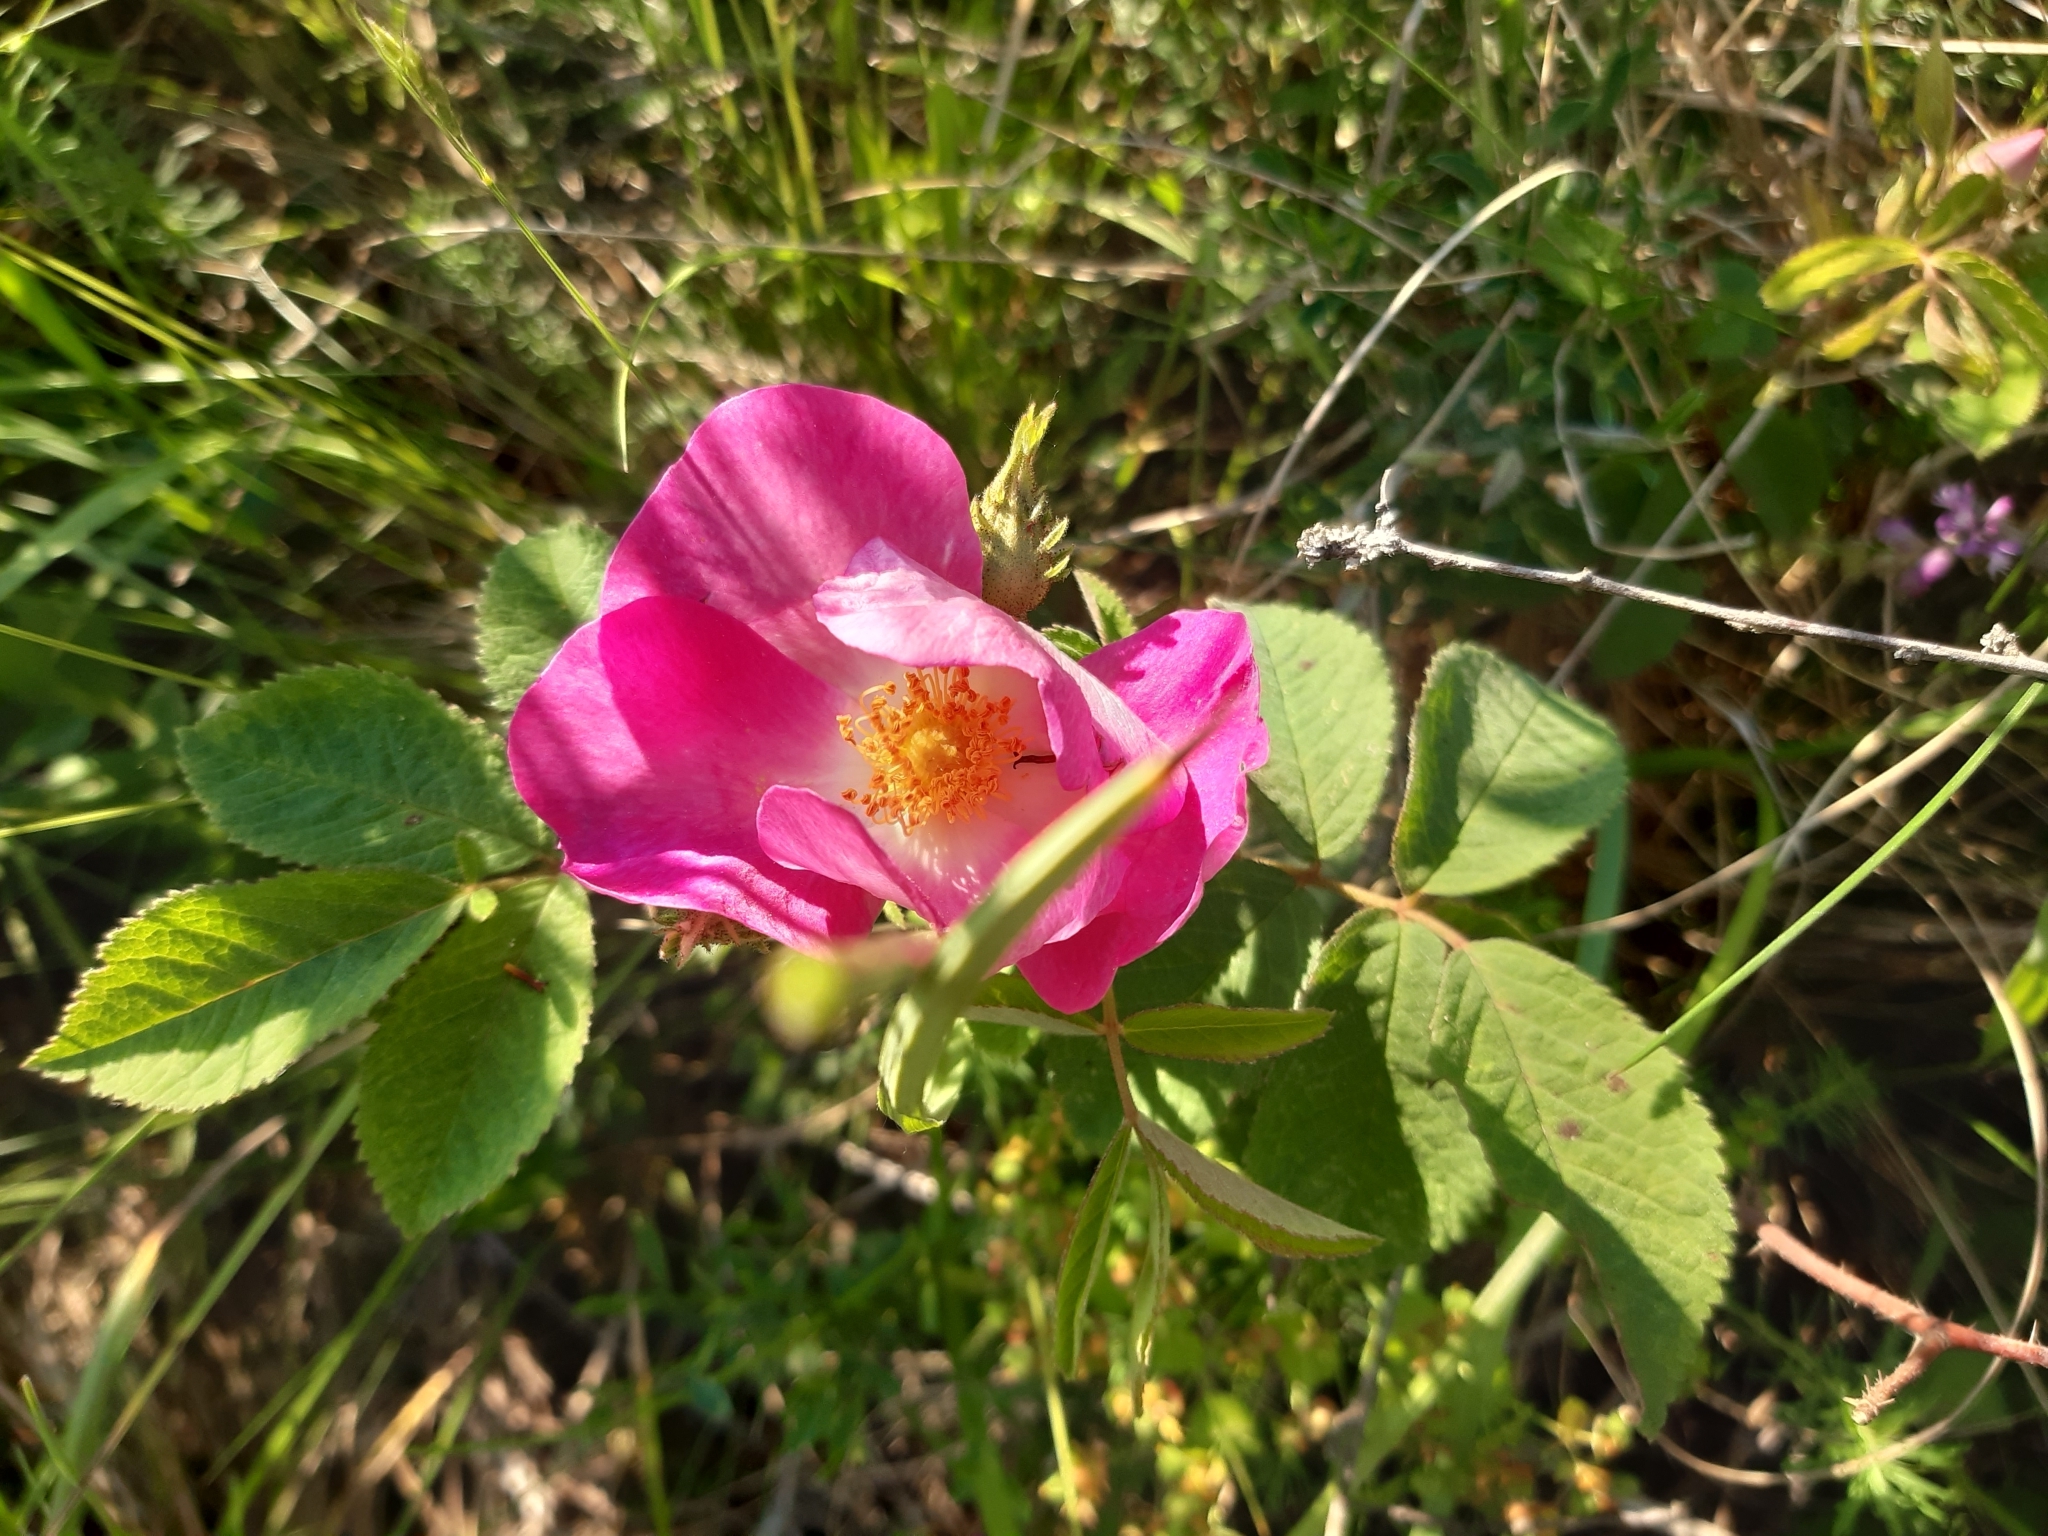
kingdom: Plantae
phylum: Tracheophyta
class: Magnoliopsida
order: Rosales
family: Rosaceae
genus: Rosa
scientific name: Rosa gallica
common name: French rose
